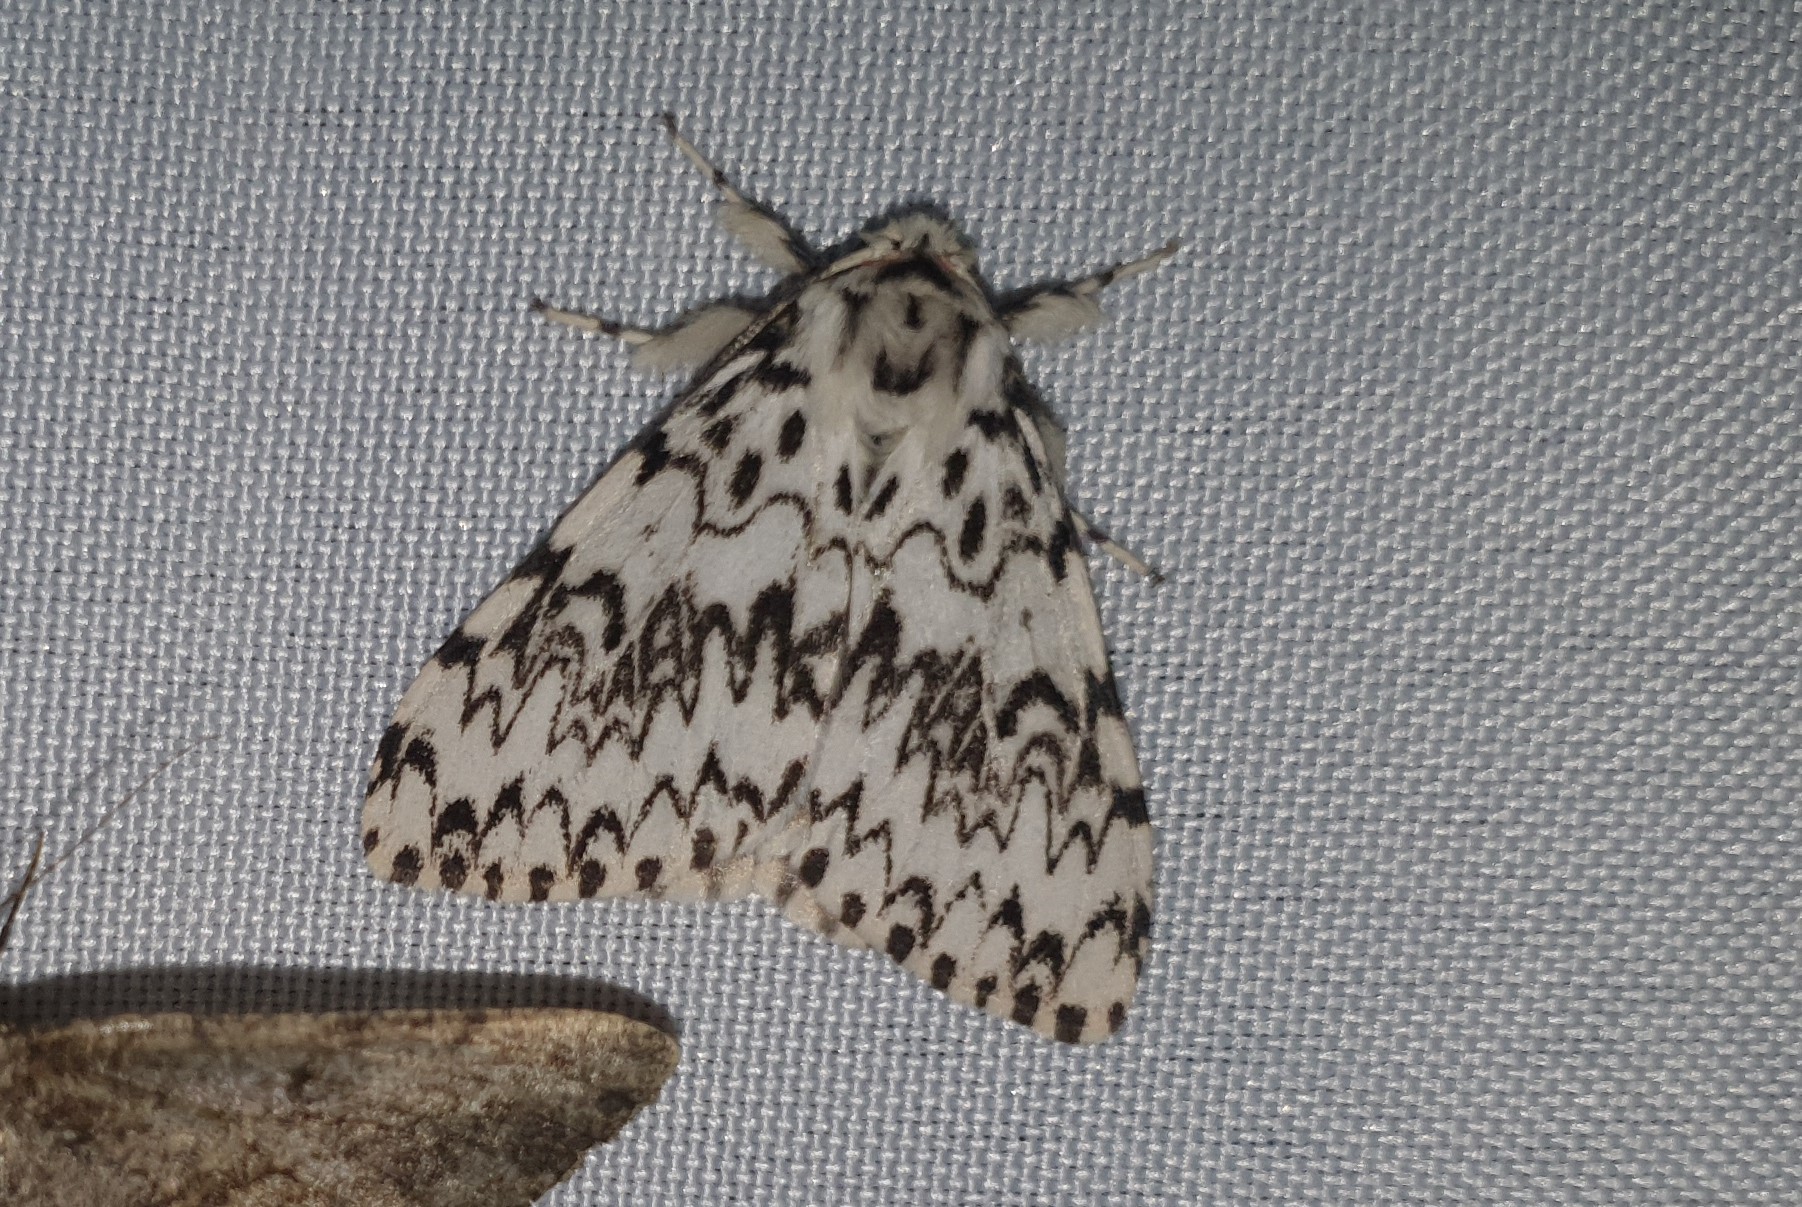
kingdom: Animalia
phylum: Arthropoda
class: Insecta
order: Lepidoptera
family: Erebidae
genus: Lymantria
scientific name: Lymantria monacha
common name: Black arches
